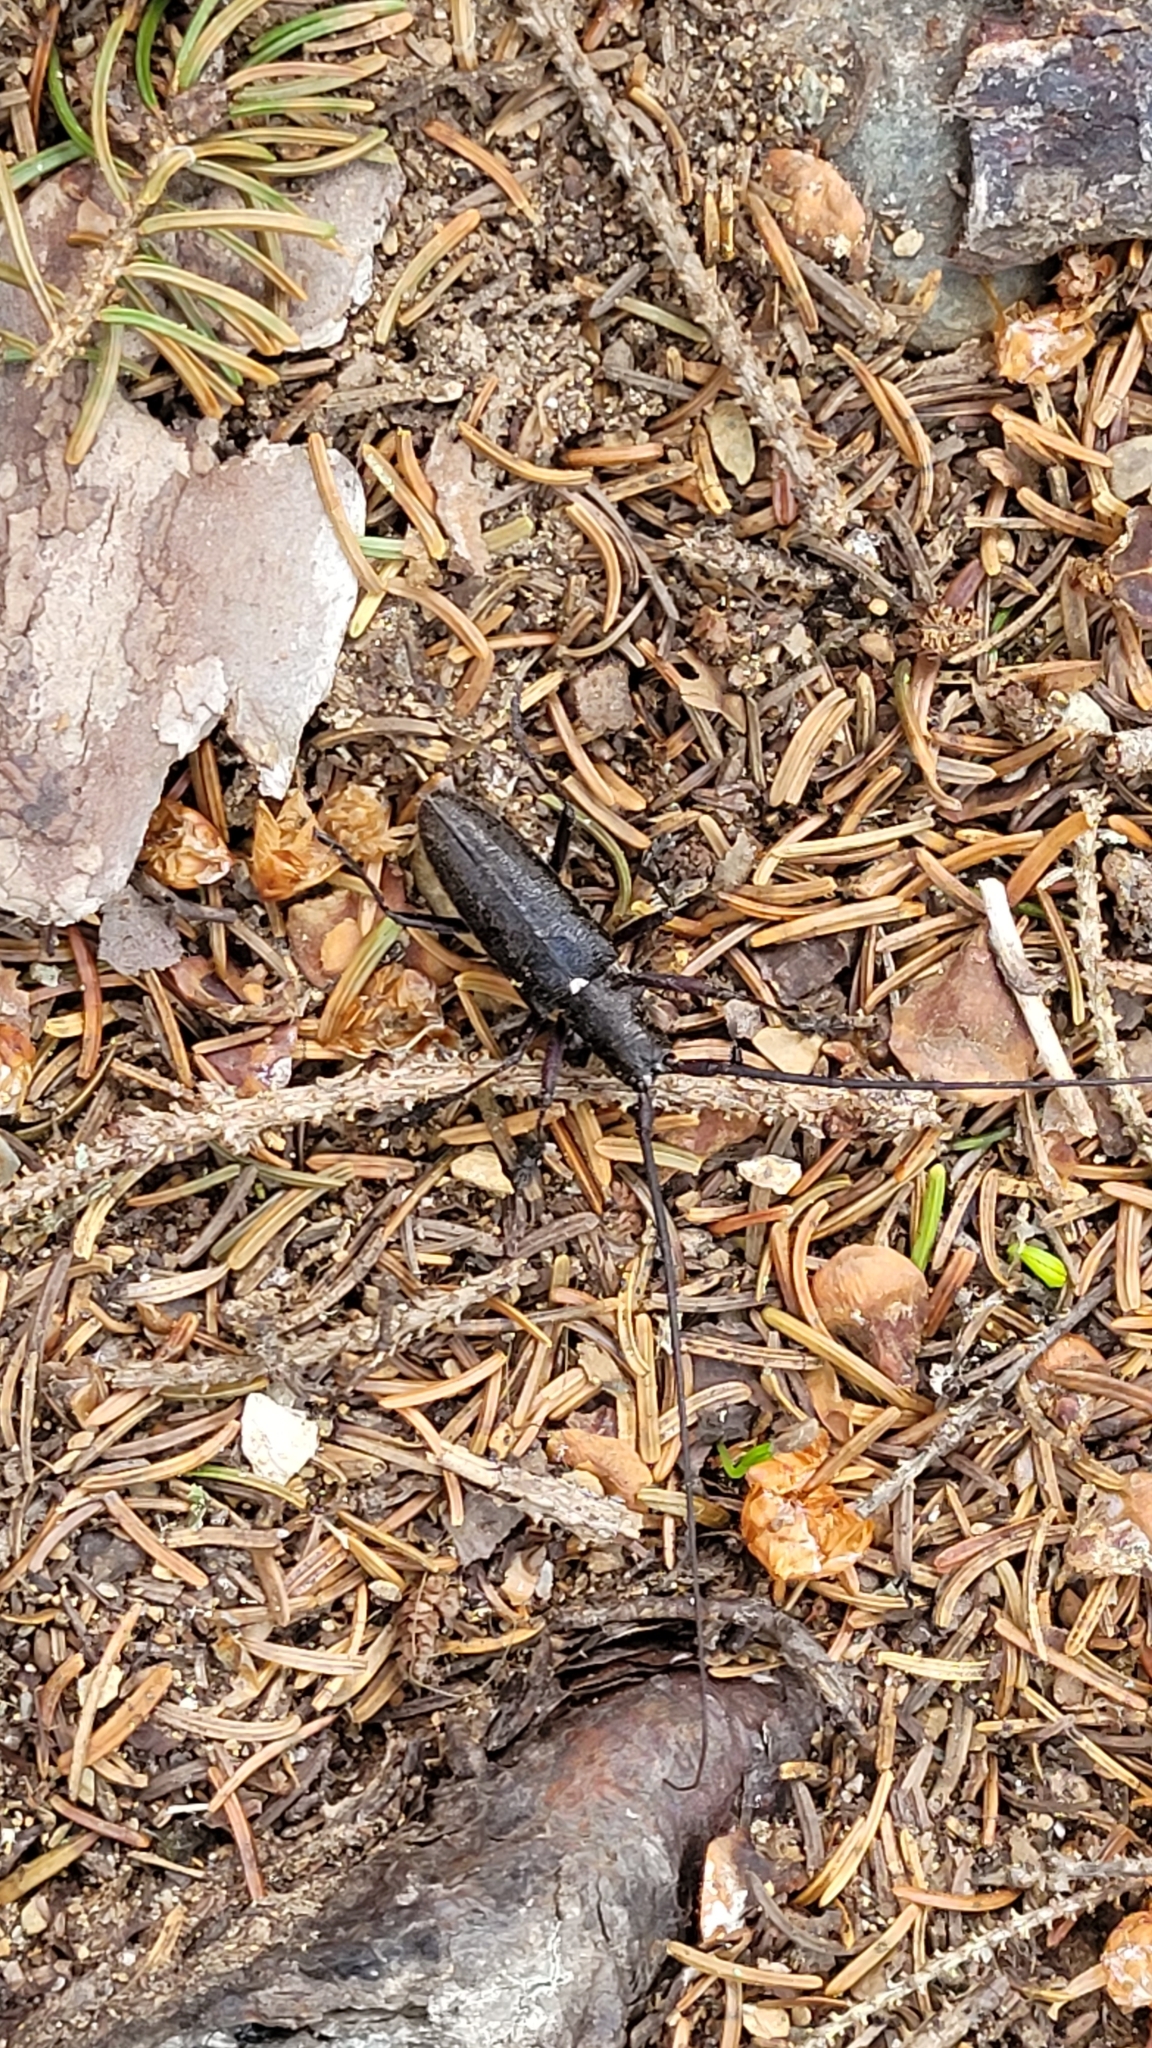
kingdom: Animalia
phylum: Arthropoda
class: Insecta
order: Coleoptera
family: Cerambycidae
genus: Monochamus
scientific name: Monochamus scutellatus
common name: White-spotted sawyer beetle
